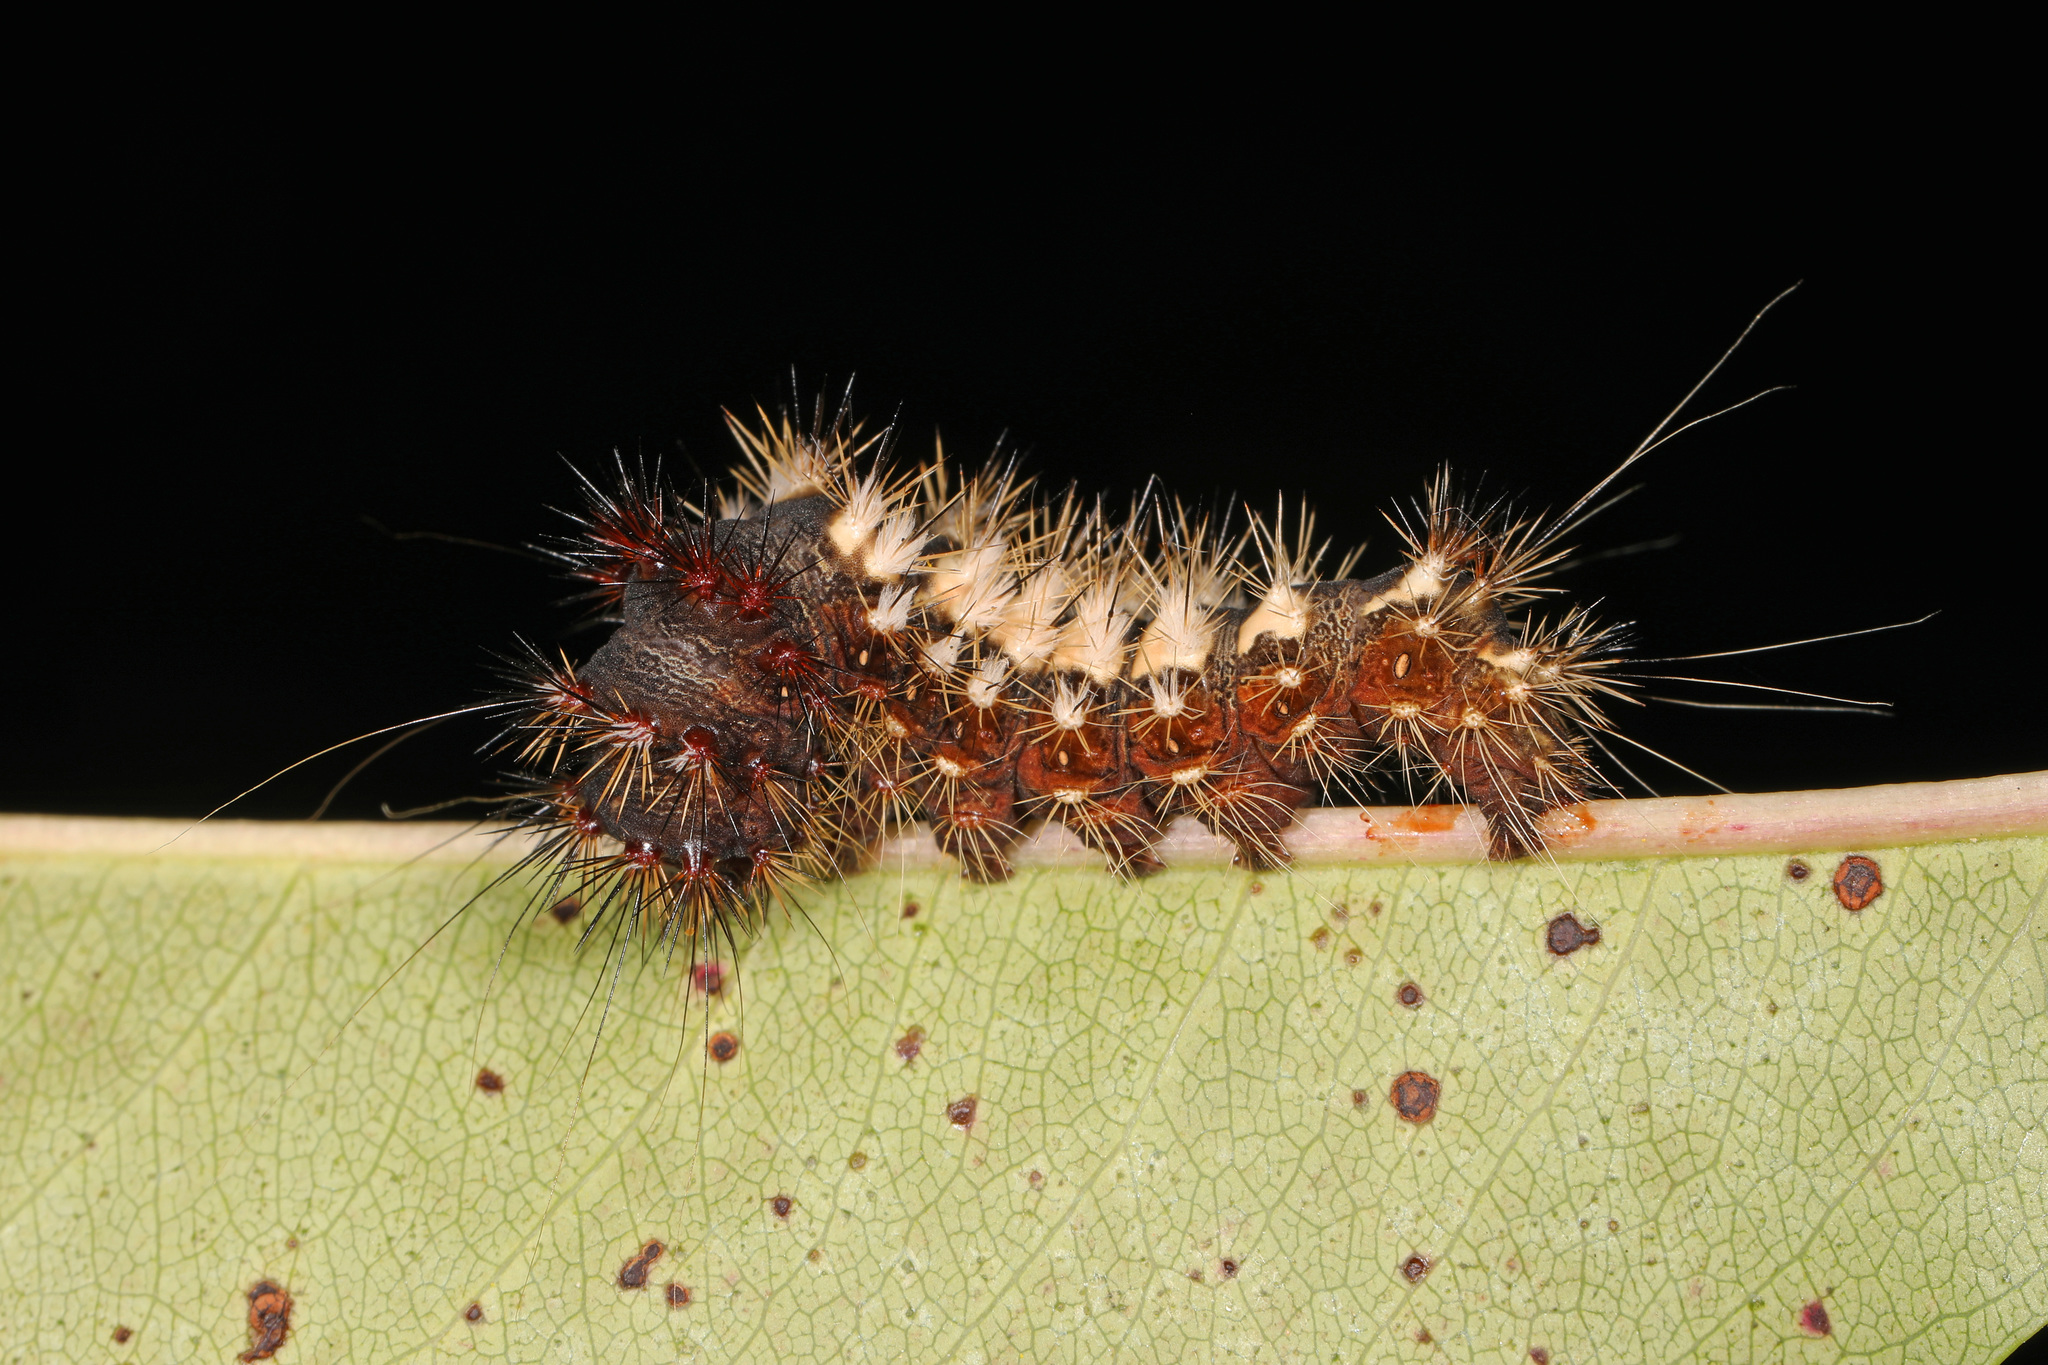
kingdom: Animalia
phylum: Arthropoda
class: Insecta
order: Lepidoptera
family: Noctuidae
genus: Acronicta
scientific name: Acronicta longa
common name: Long-winged dagger
